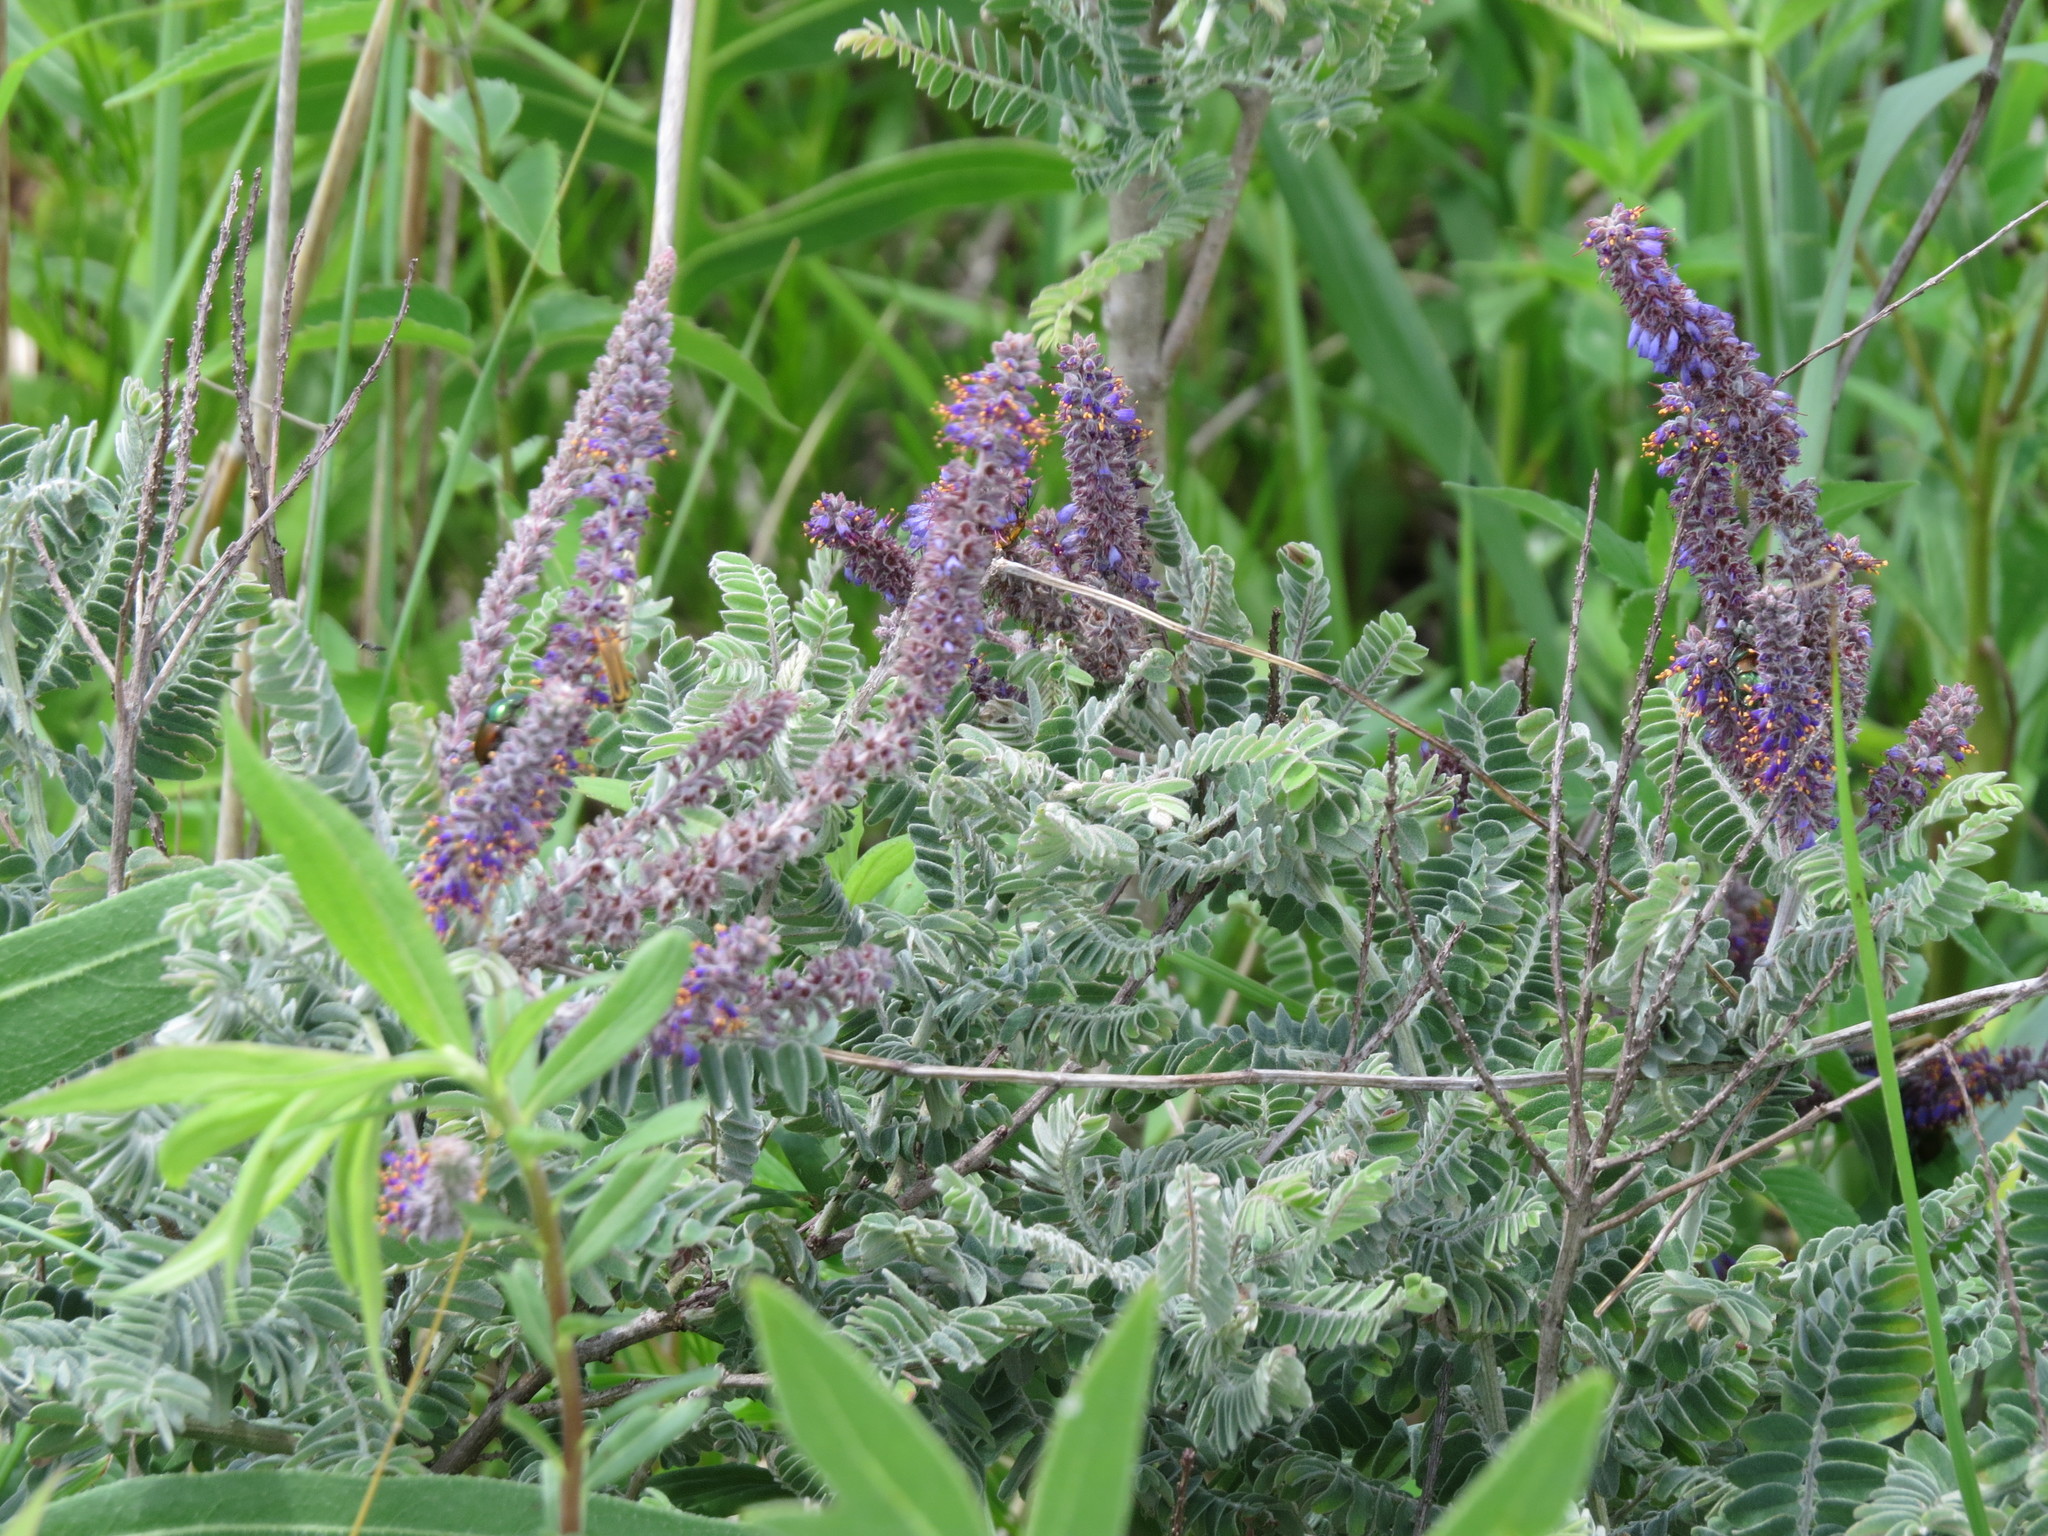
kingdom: Plantae
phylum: Tracheophyta
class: Magnoliopsida
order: Fabales
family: Fabaceae
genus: Amorpha
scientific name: Amorpha canescens
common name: Leadplant
